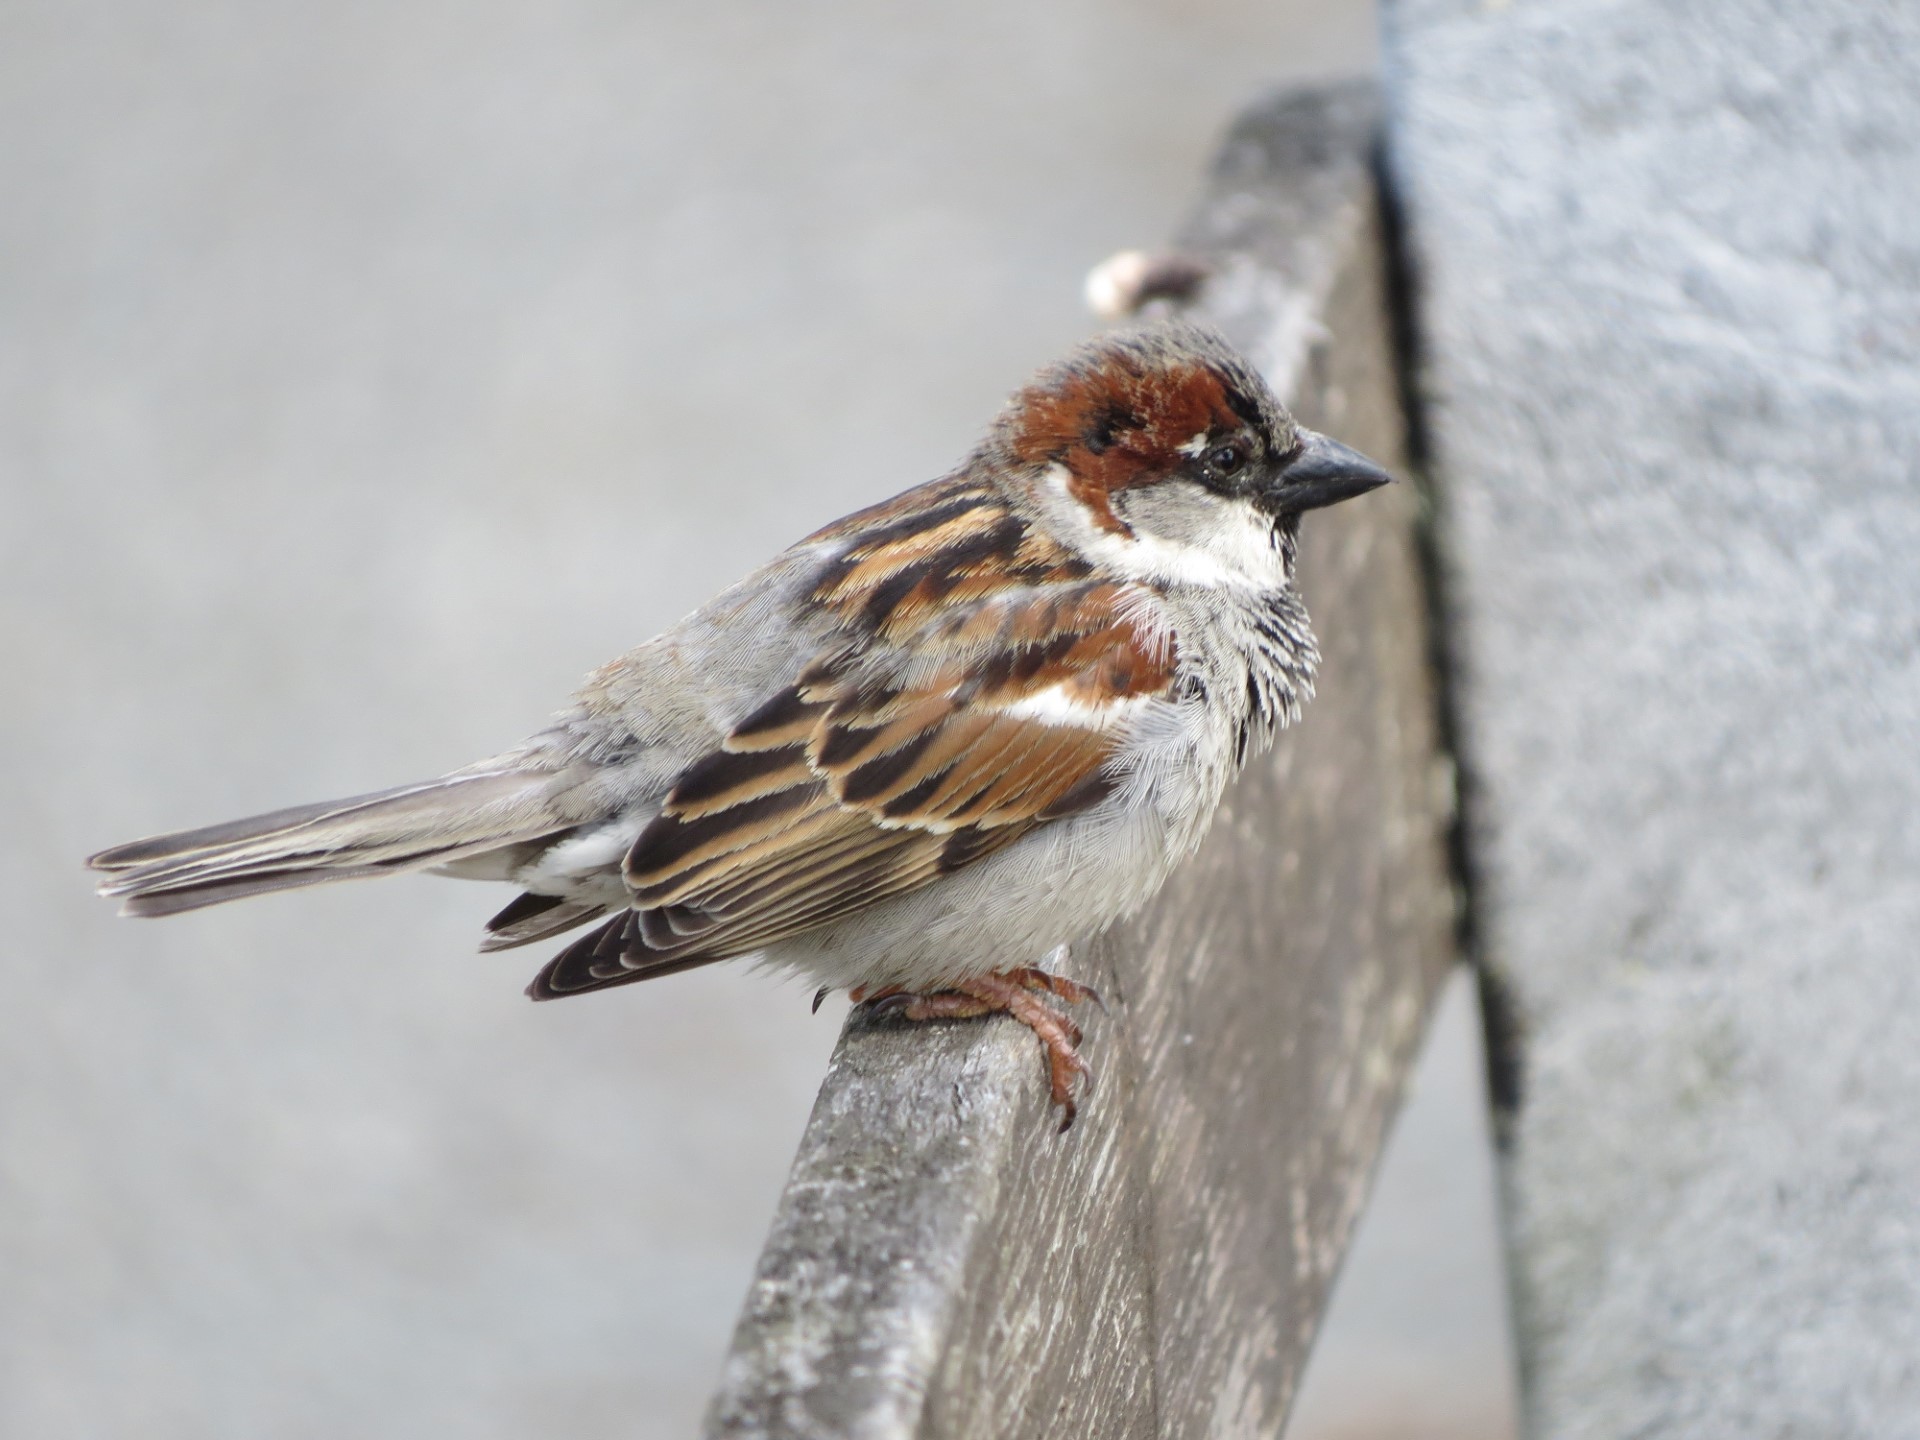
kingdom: Animalia
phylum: Chordata
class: Aves
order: Passeriformes
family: Passeridae
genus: Passer
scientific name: Passer domesticus
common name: House sparrow
